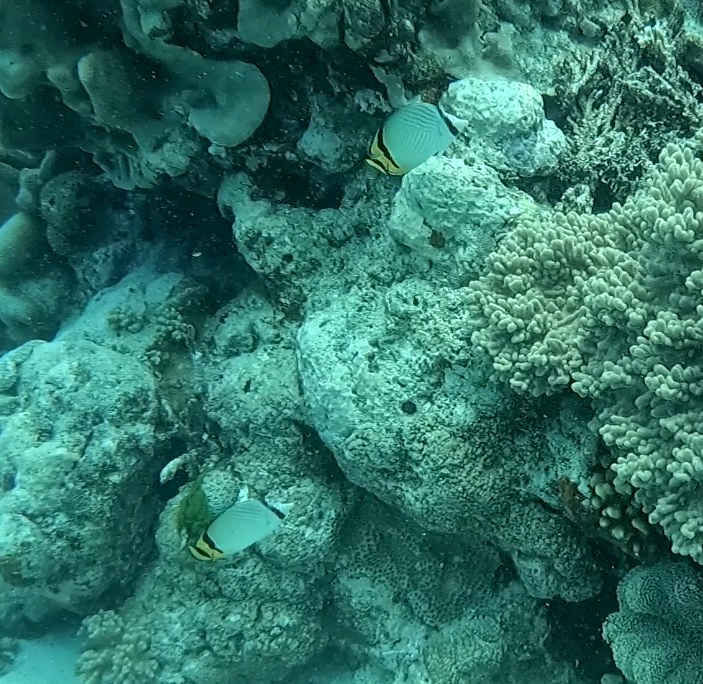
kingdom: Animalia
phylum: Chordata
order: Perciformes
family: Chaetodontidae
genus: Chaetodon
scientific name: Chaetodon vagabundus
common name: Vagabond butterflyfish
